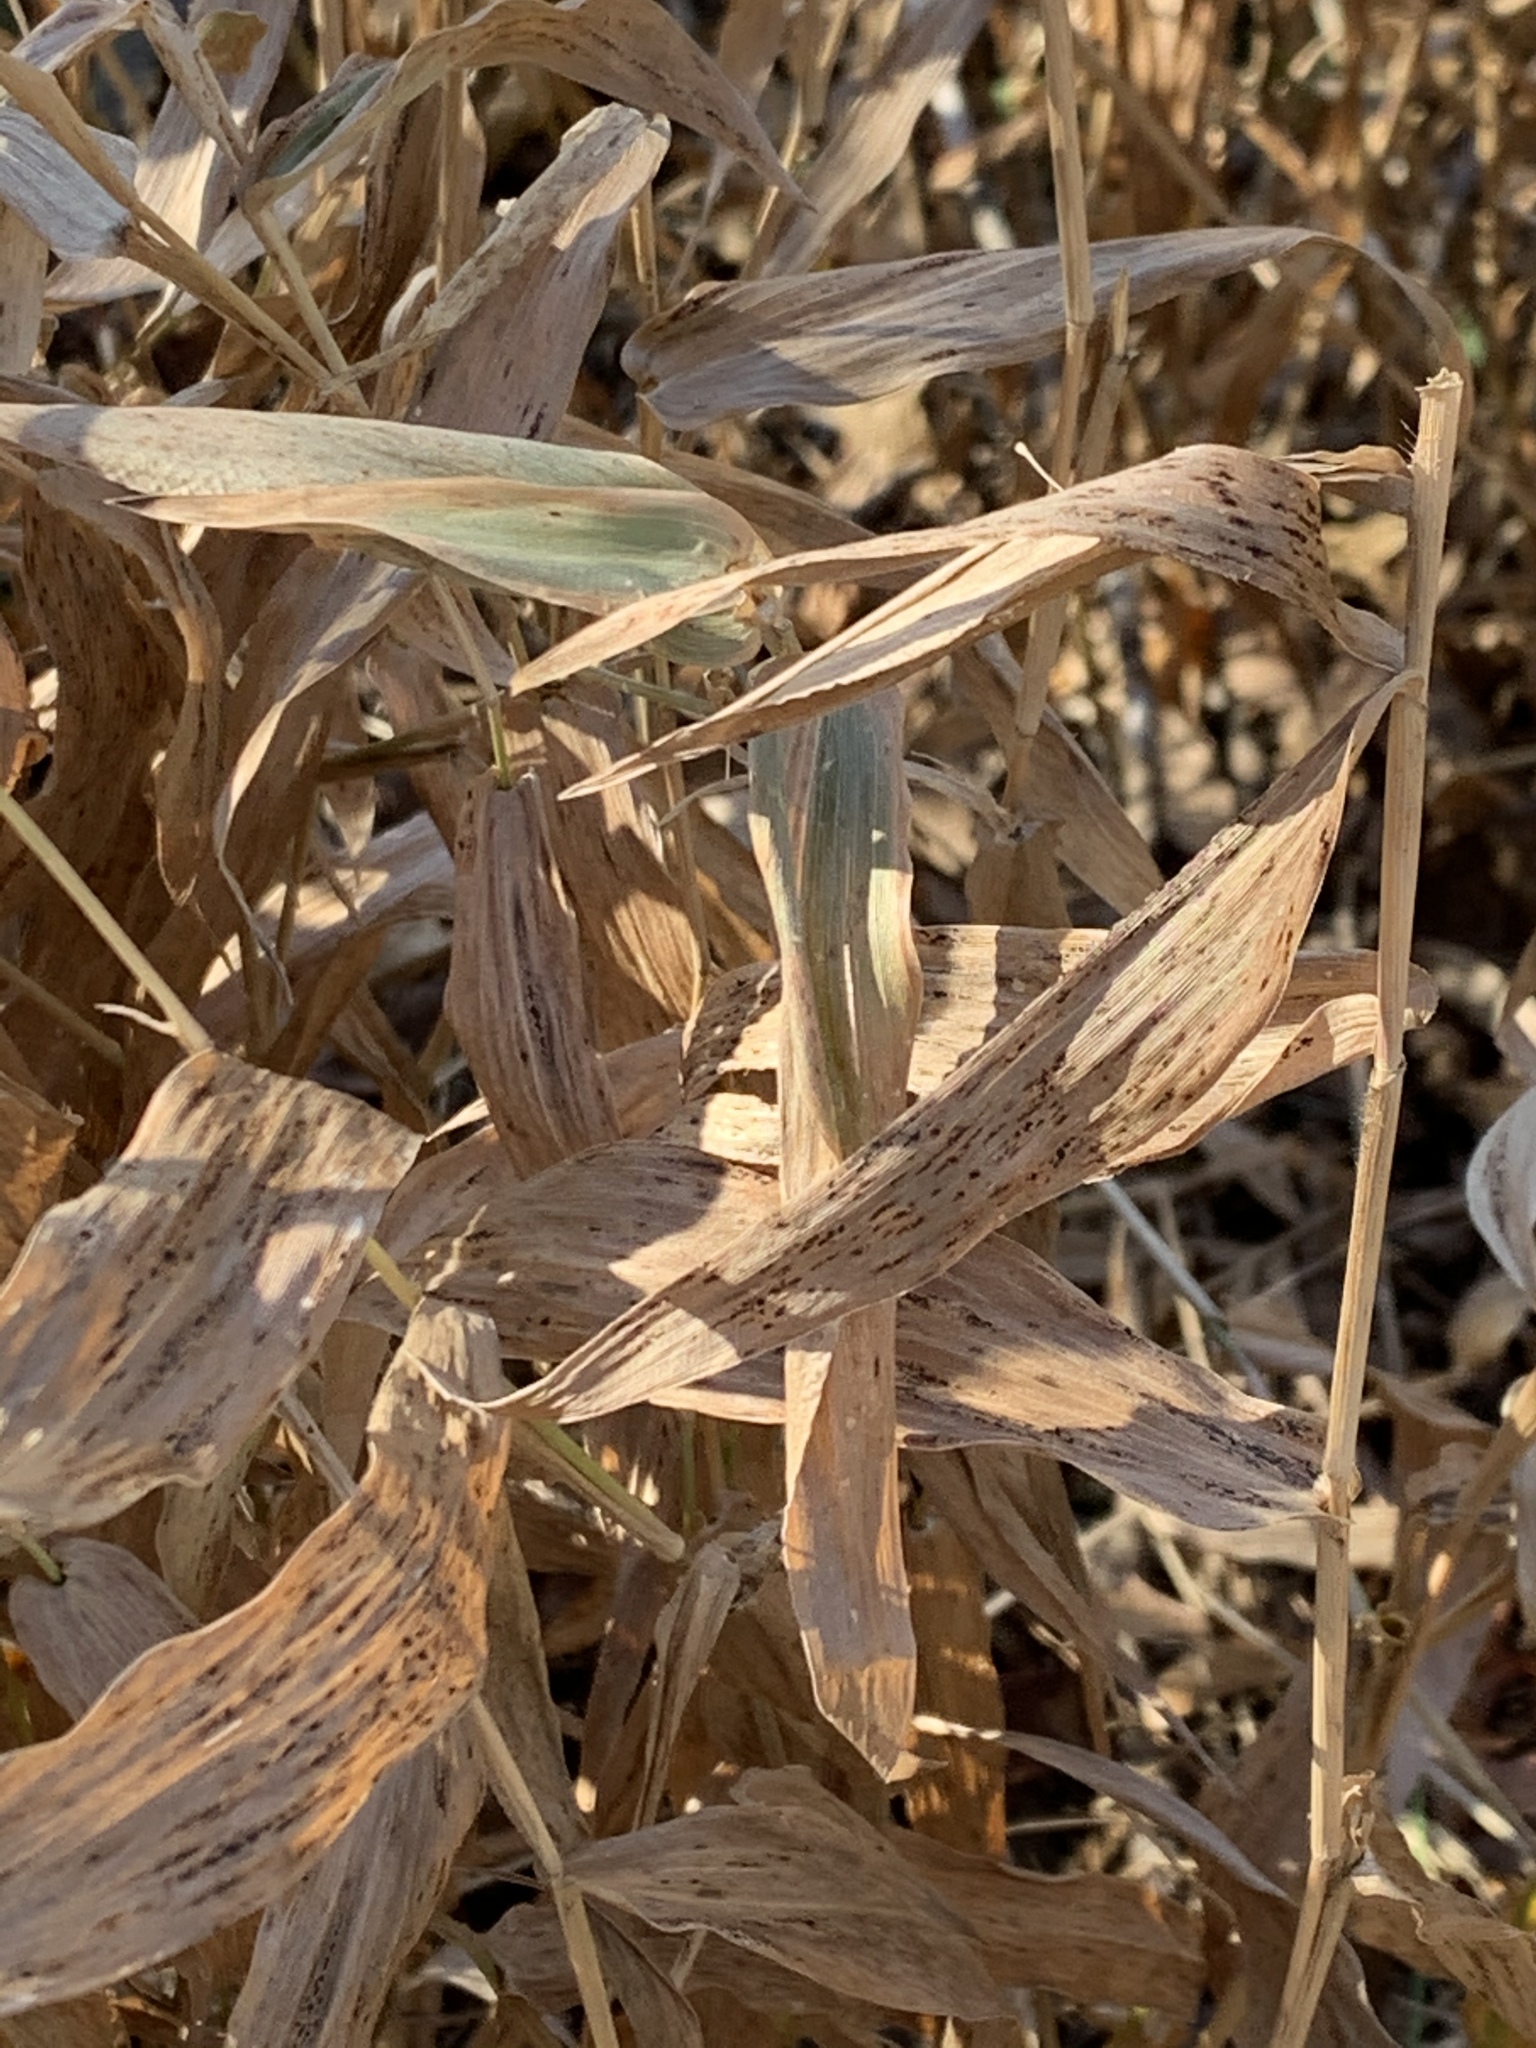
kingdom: Plantae
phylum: Tracheophyta
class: Liliopsida
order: Poales
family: Poaceae
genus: Dichanthelium
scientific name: Dichanthelium clandestinum
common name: Deer-tongue grass
